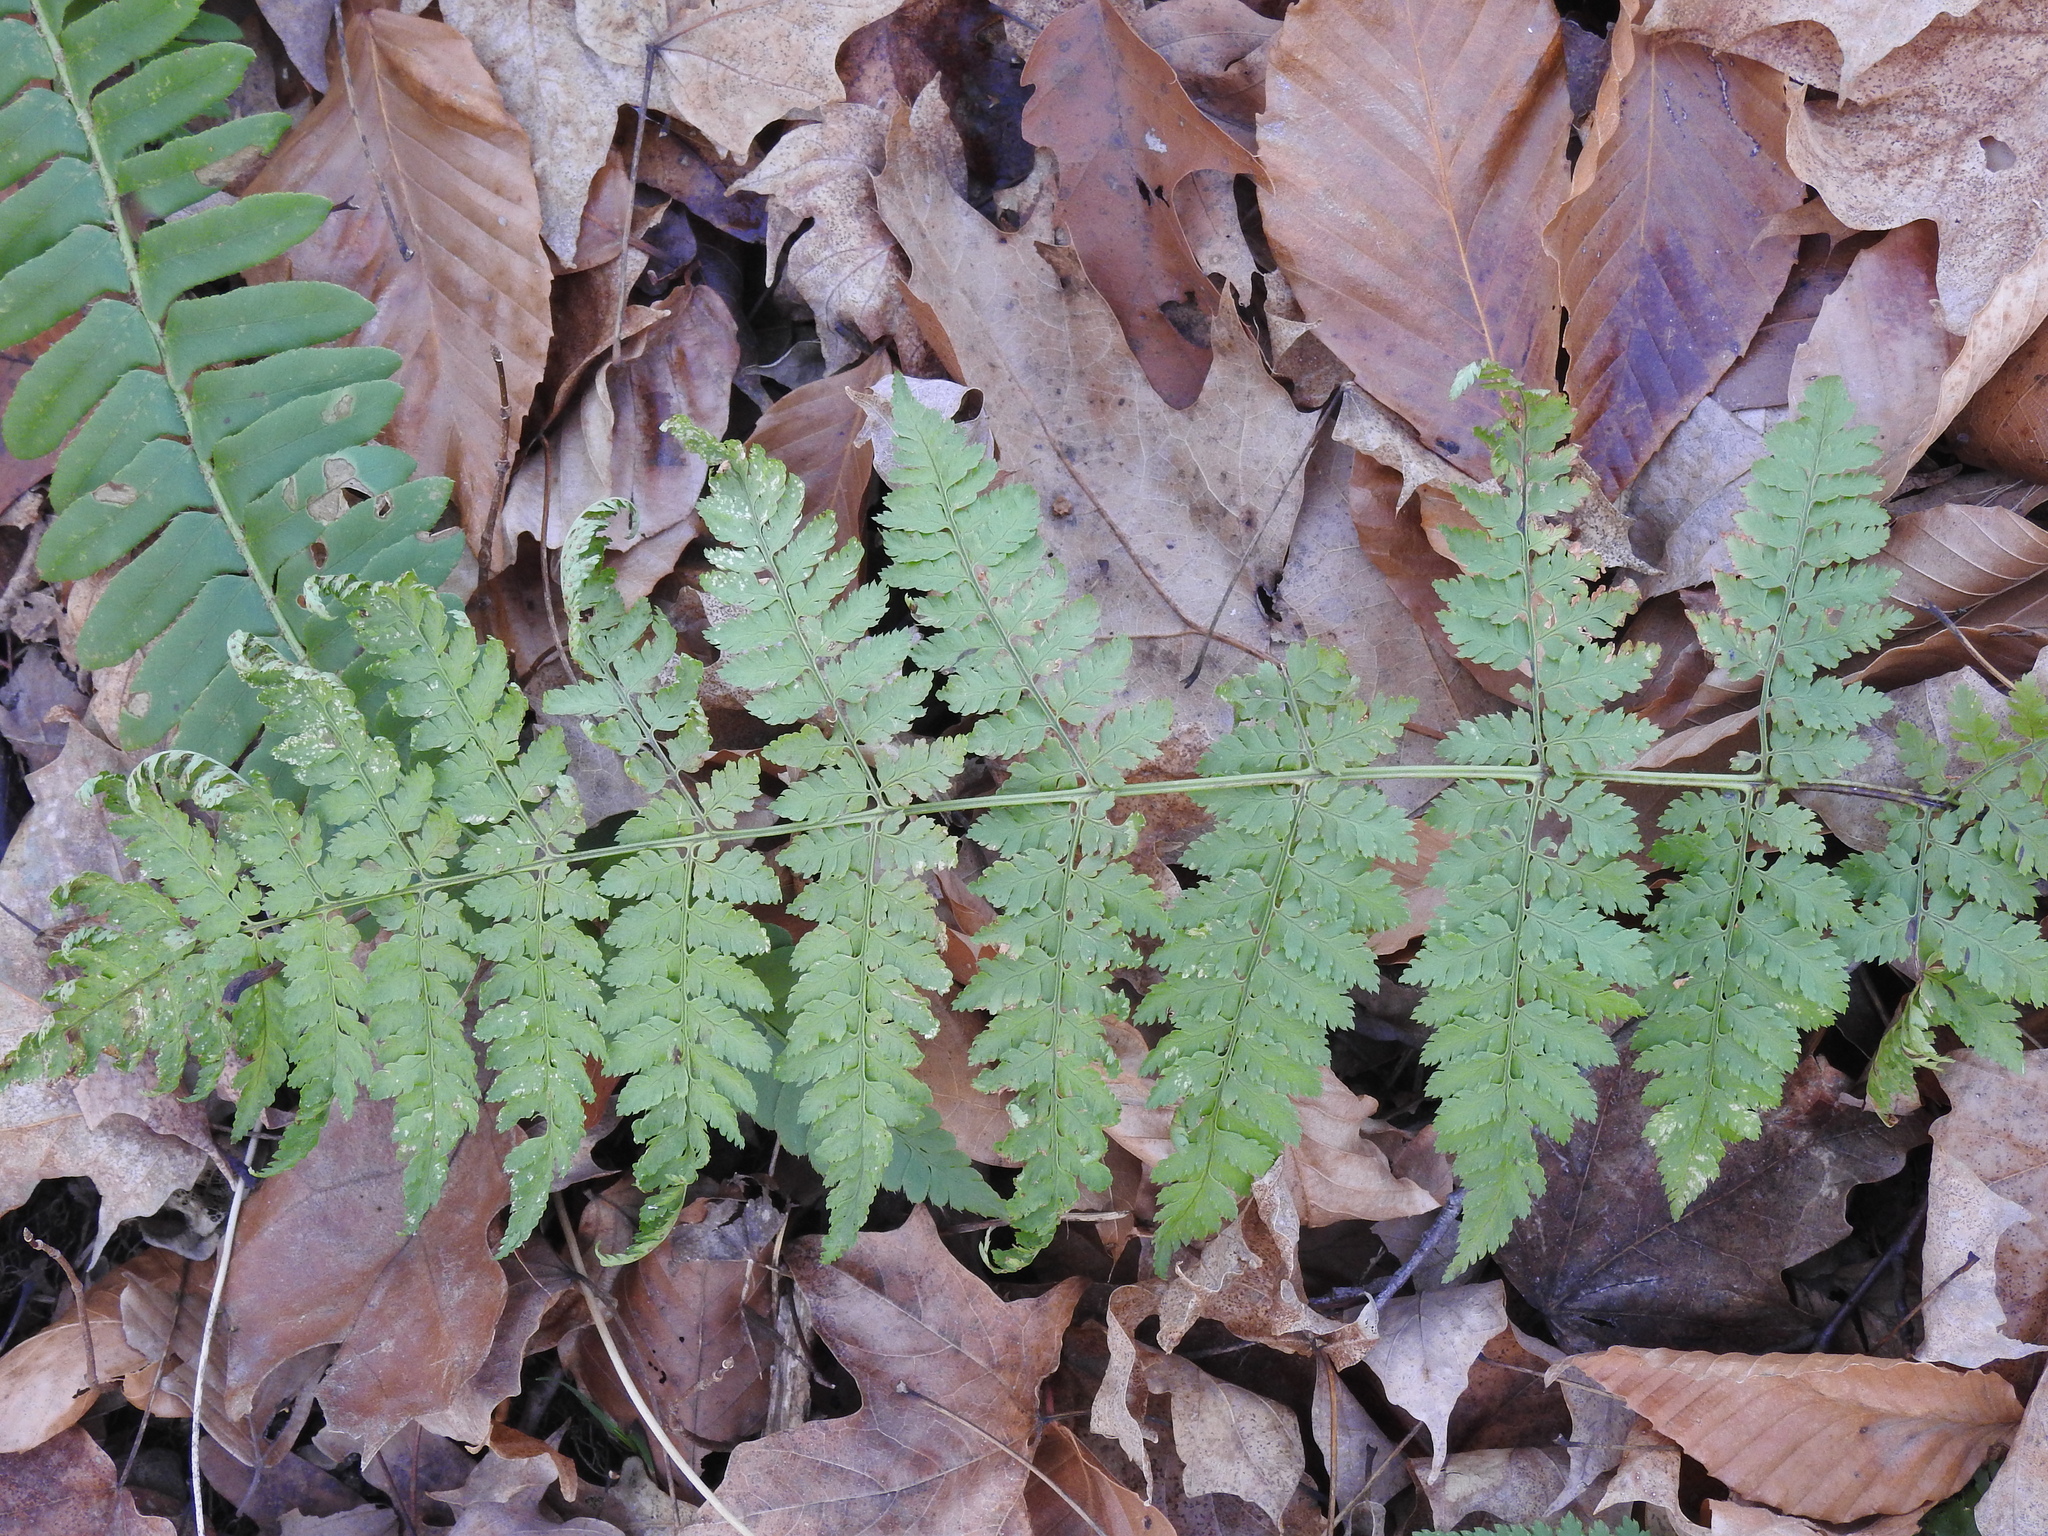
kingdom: Plantae
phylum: Tracheophyta
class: Polypodiopsida
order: Polypodiales
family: Dryopteridaceae
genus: Dryopteris
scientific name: Dryopteris intermedia
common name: Evergreen wood fern
